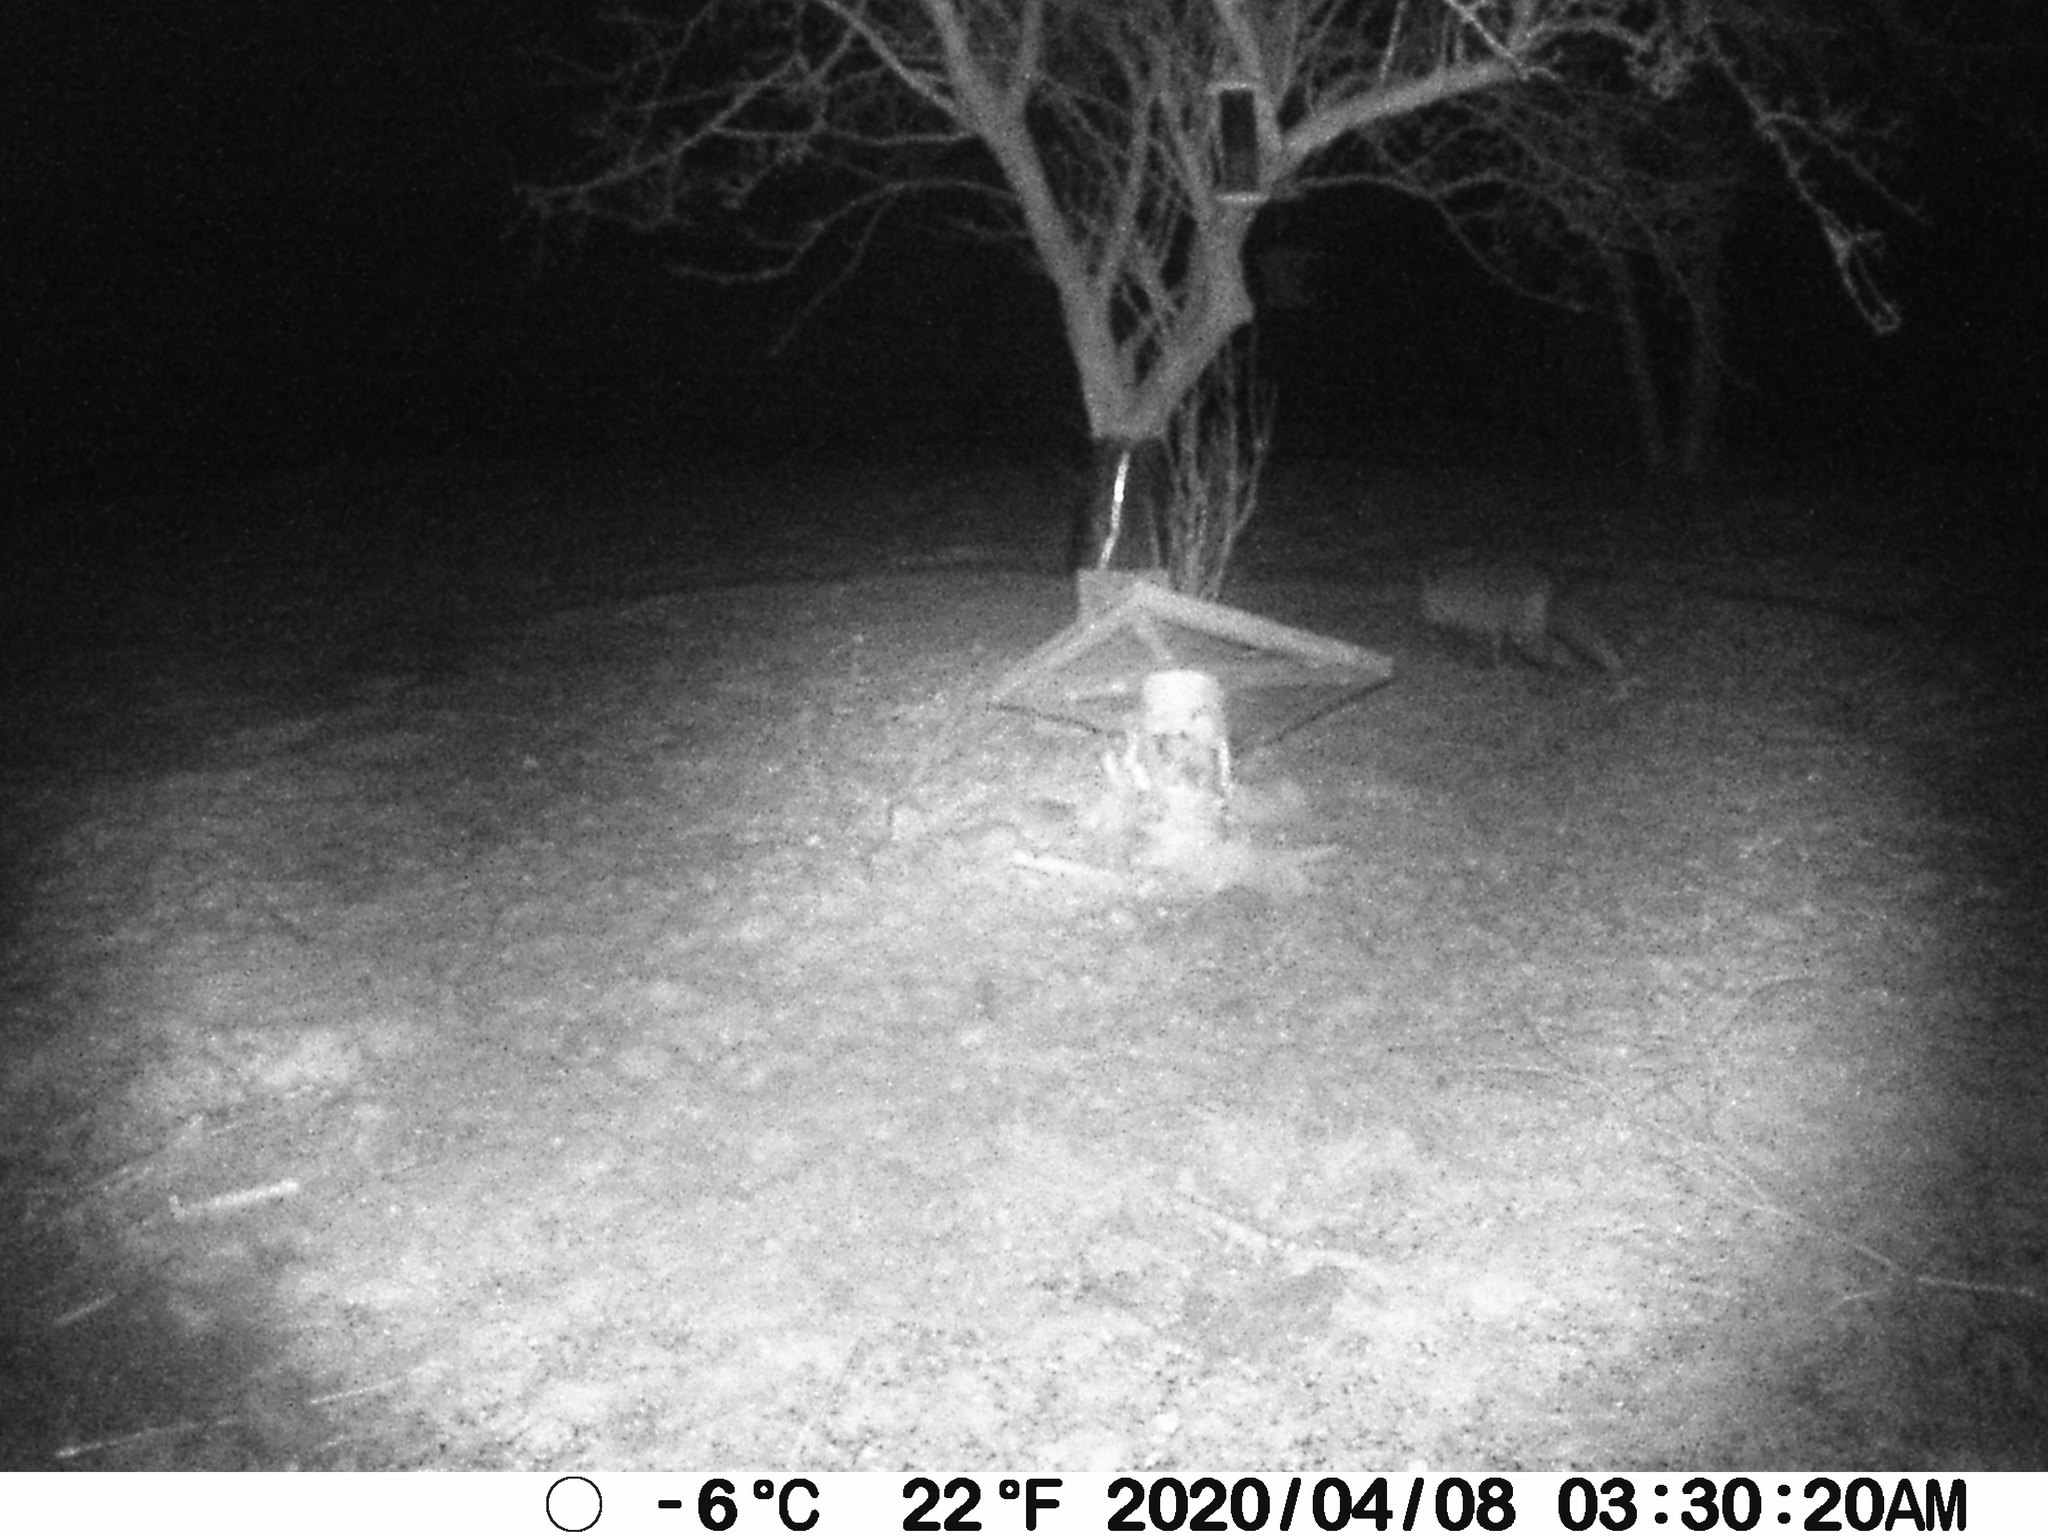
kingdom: Animalia
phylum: Chordata
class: Mammalia
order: Carnivora
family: Canidae
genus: Vulpes
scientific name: Vulpes vulpes
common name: Red fox
